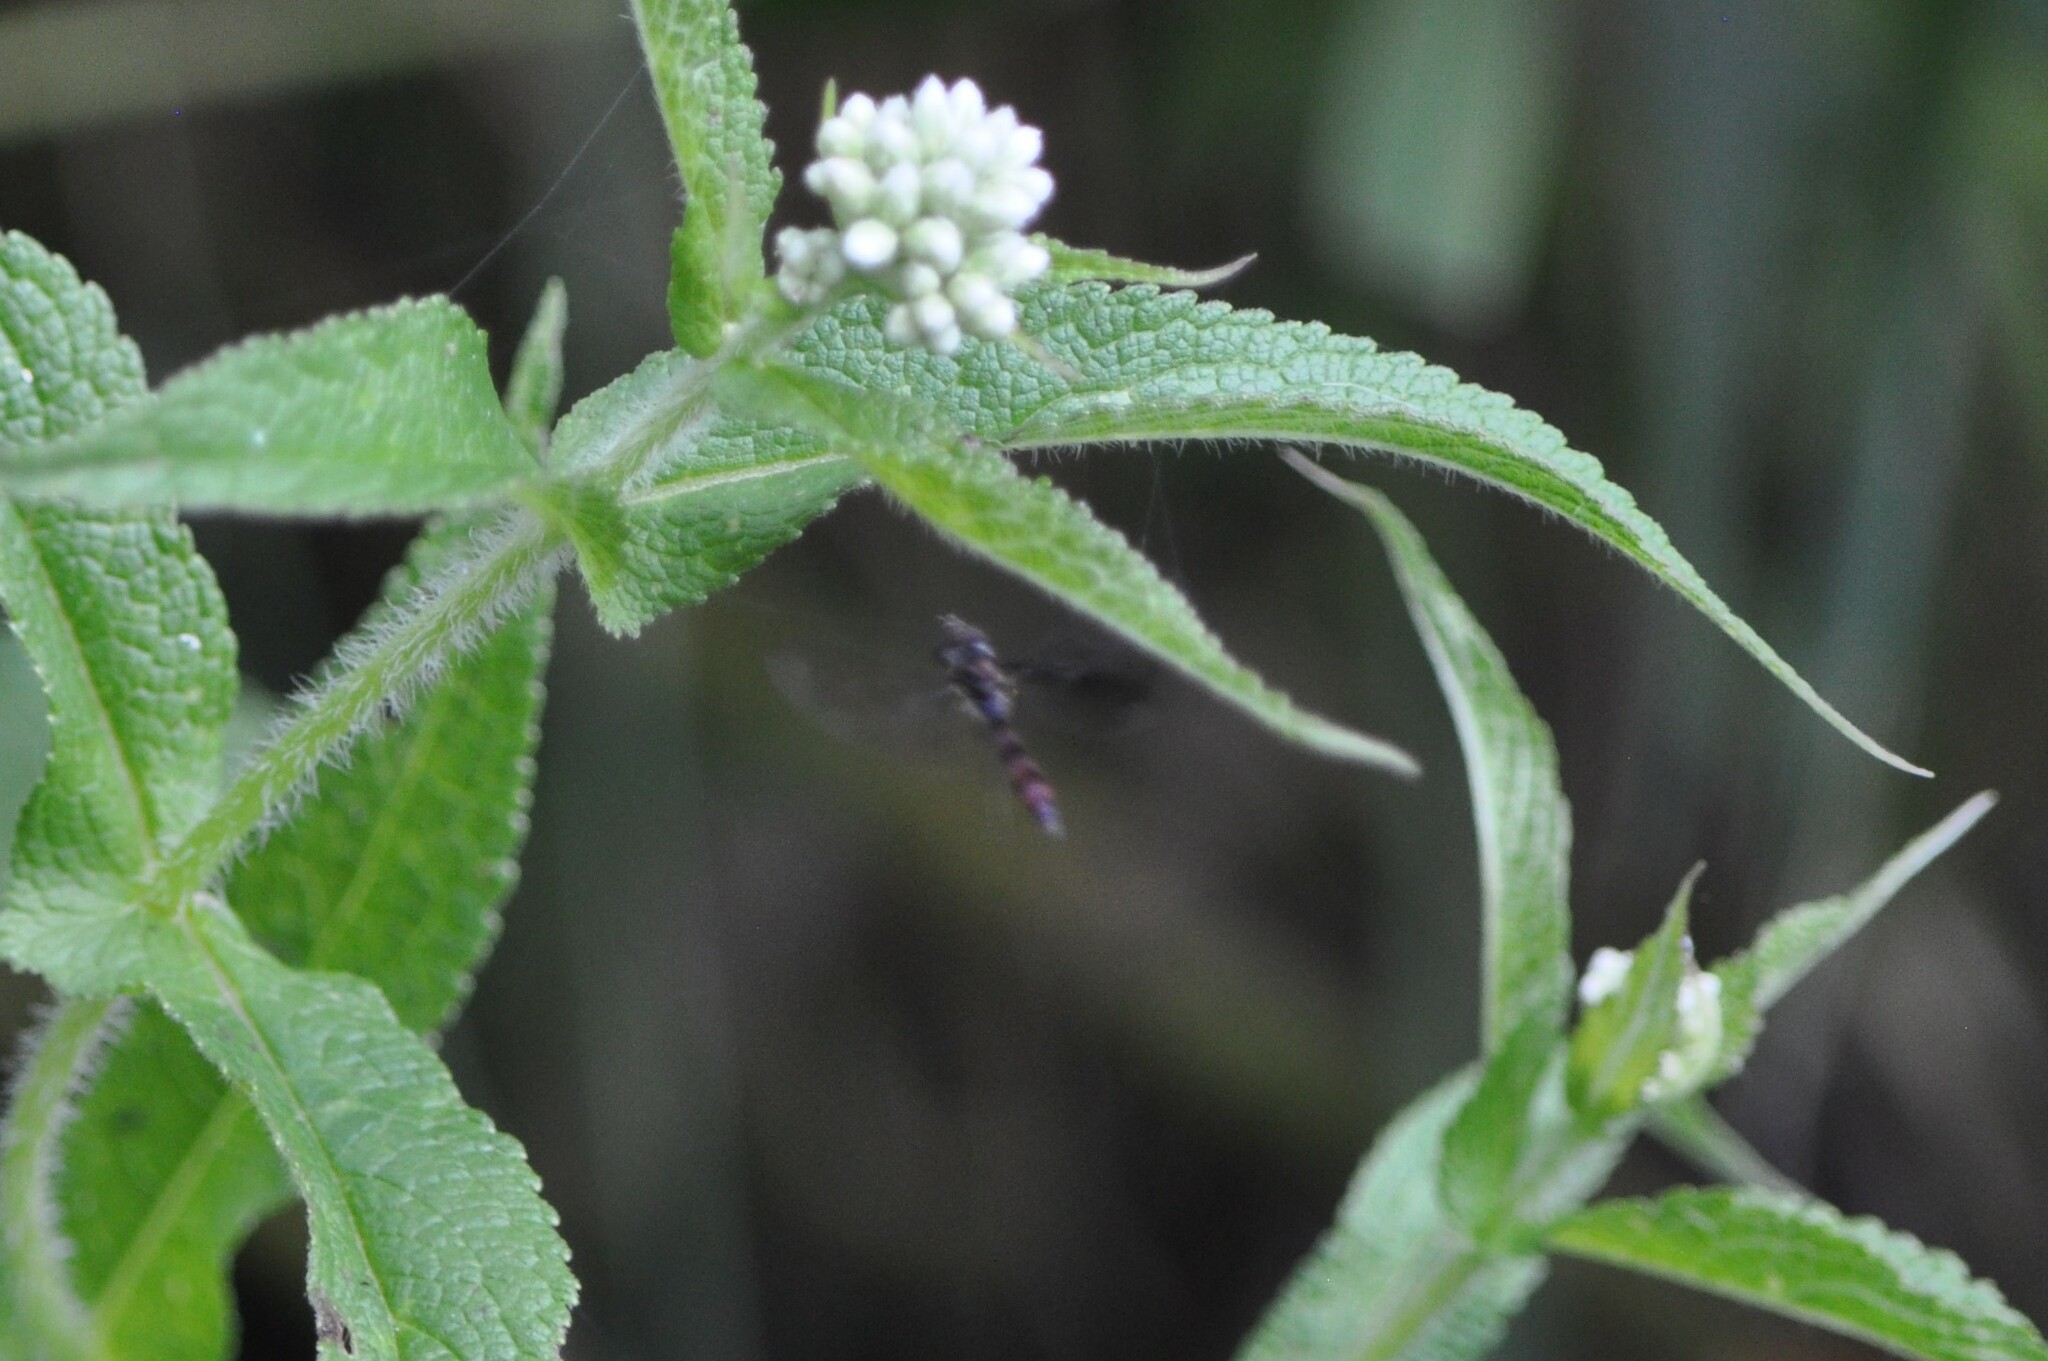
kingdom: Animalia
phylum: Arthropoda
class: Insecta
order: Diptera
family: Syrphidae
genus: Ocyptamus
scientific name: Ocyptamus fuscipennis
